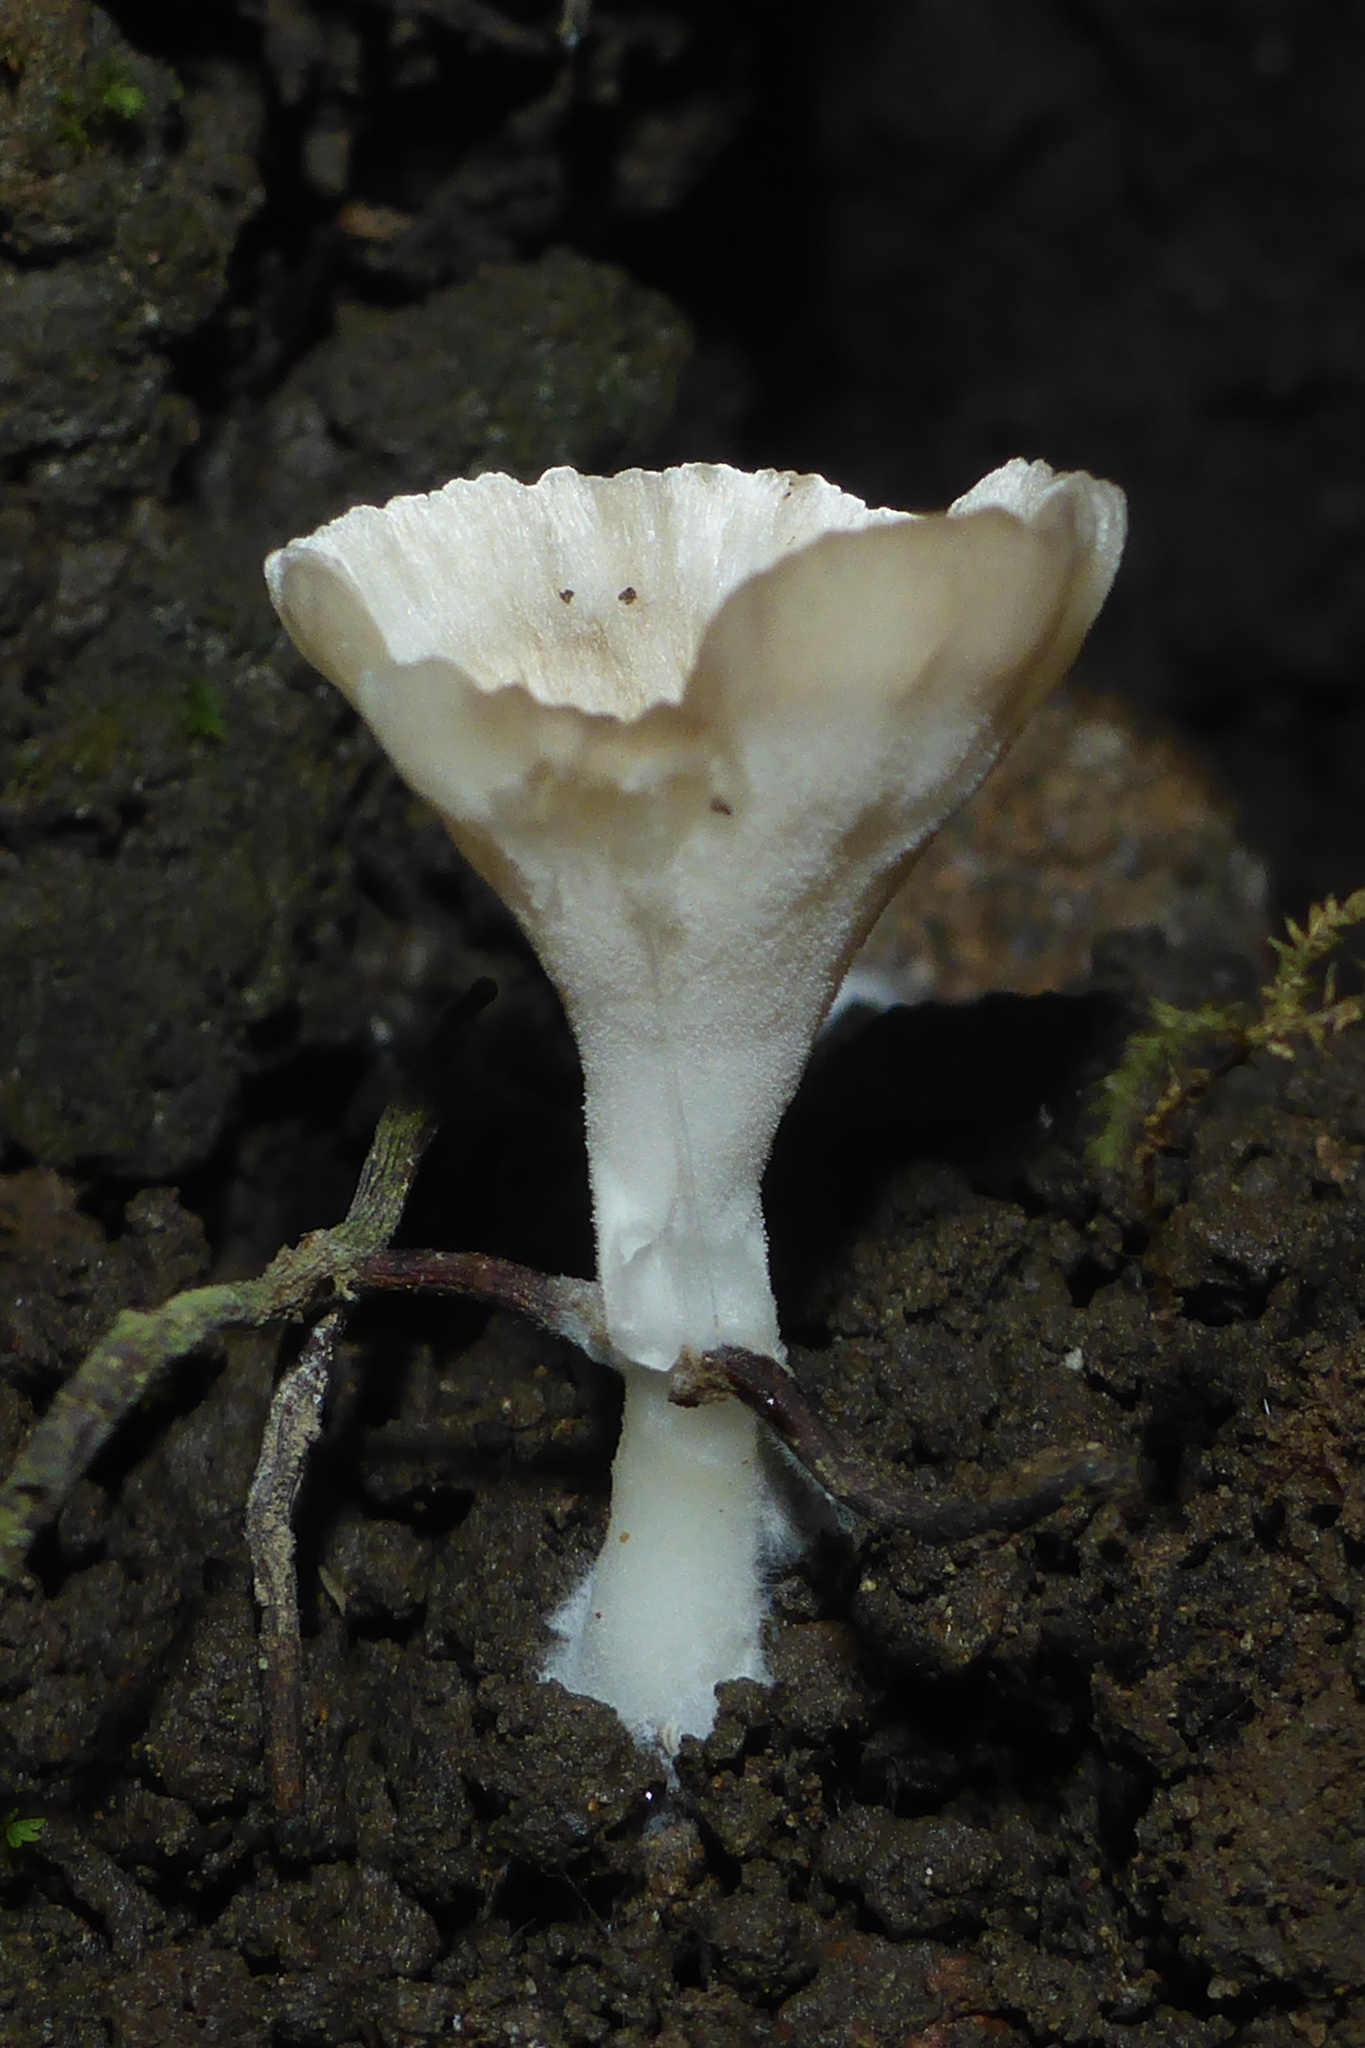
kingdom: Fungi
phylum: Basidiomycota
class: Agaricomycetes
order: Hymenochaetales
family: Rickenellaceae
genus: Cotylidia
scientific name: Cotylidia diaphana
